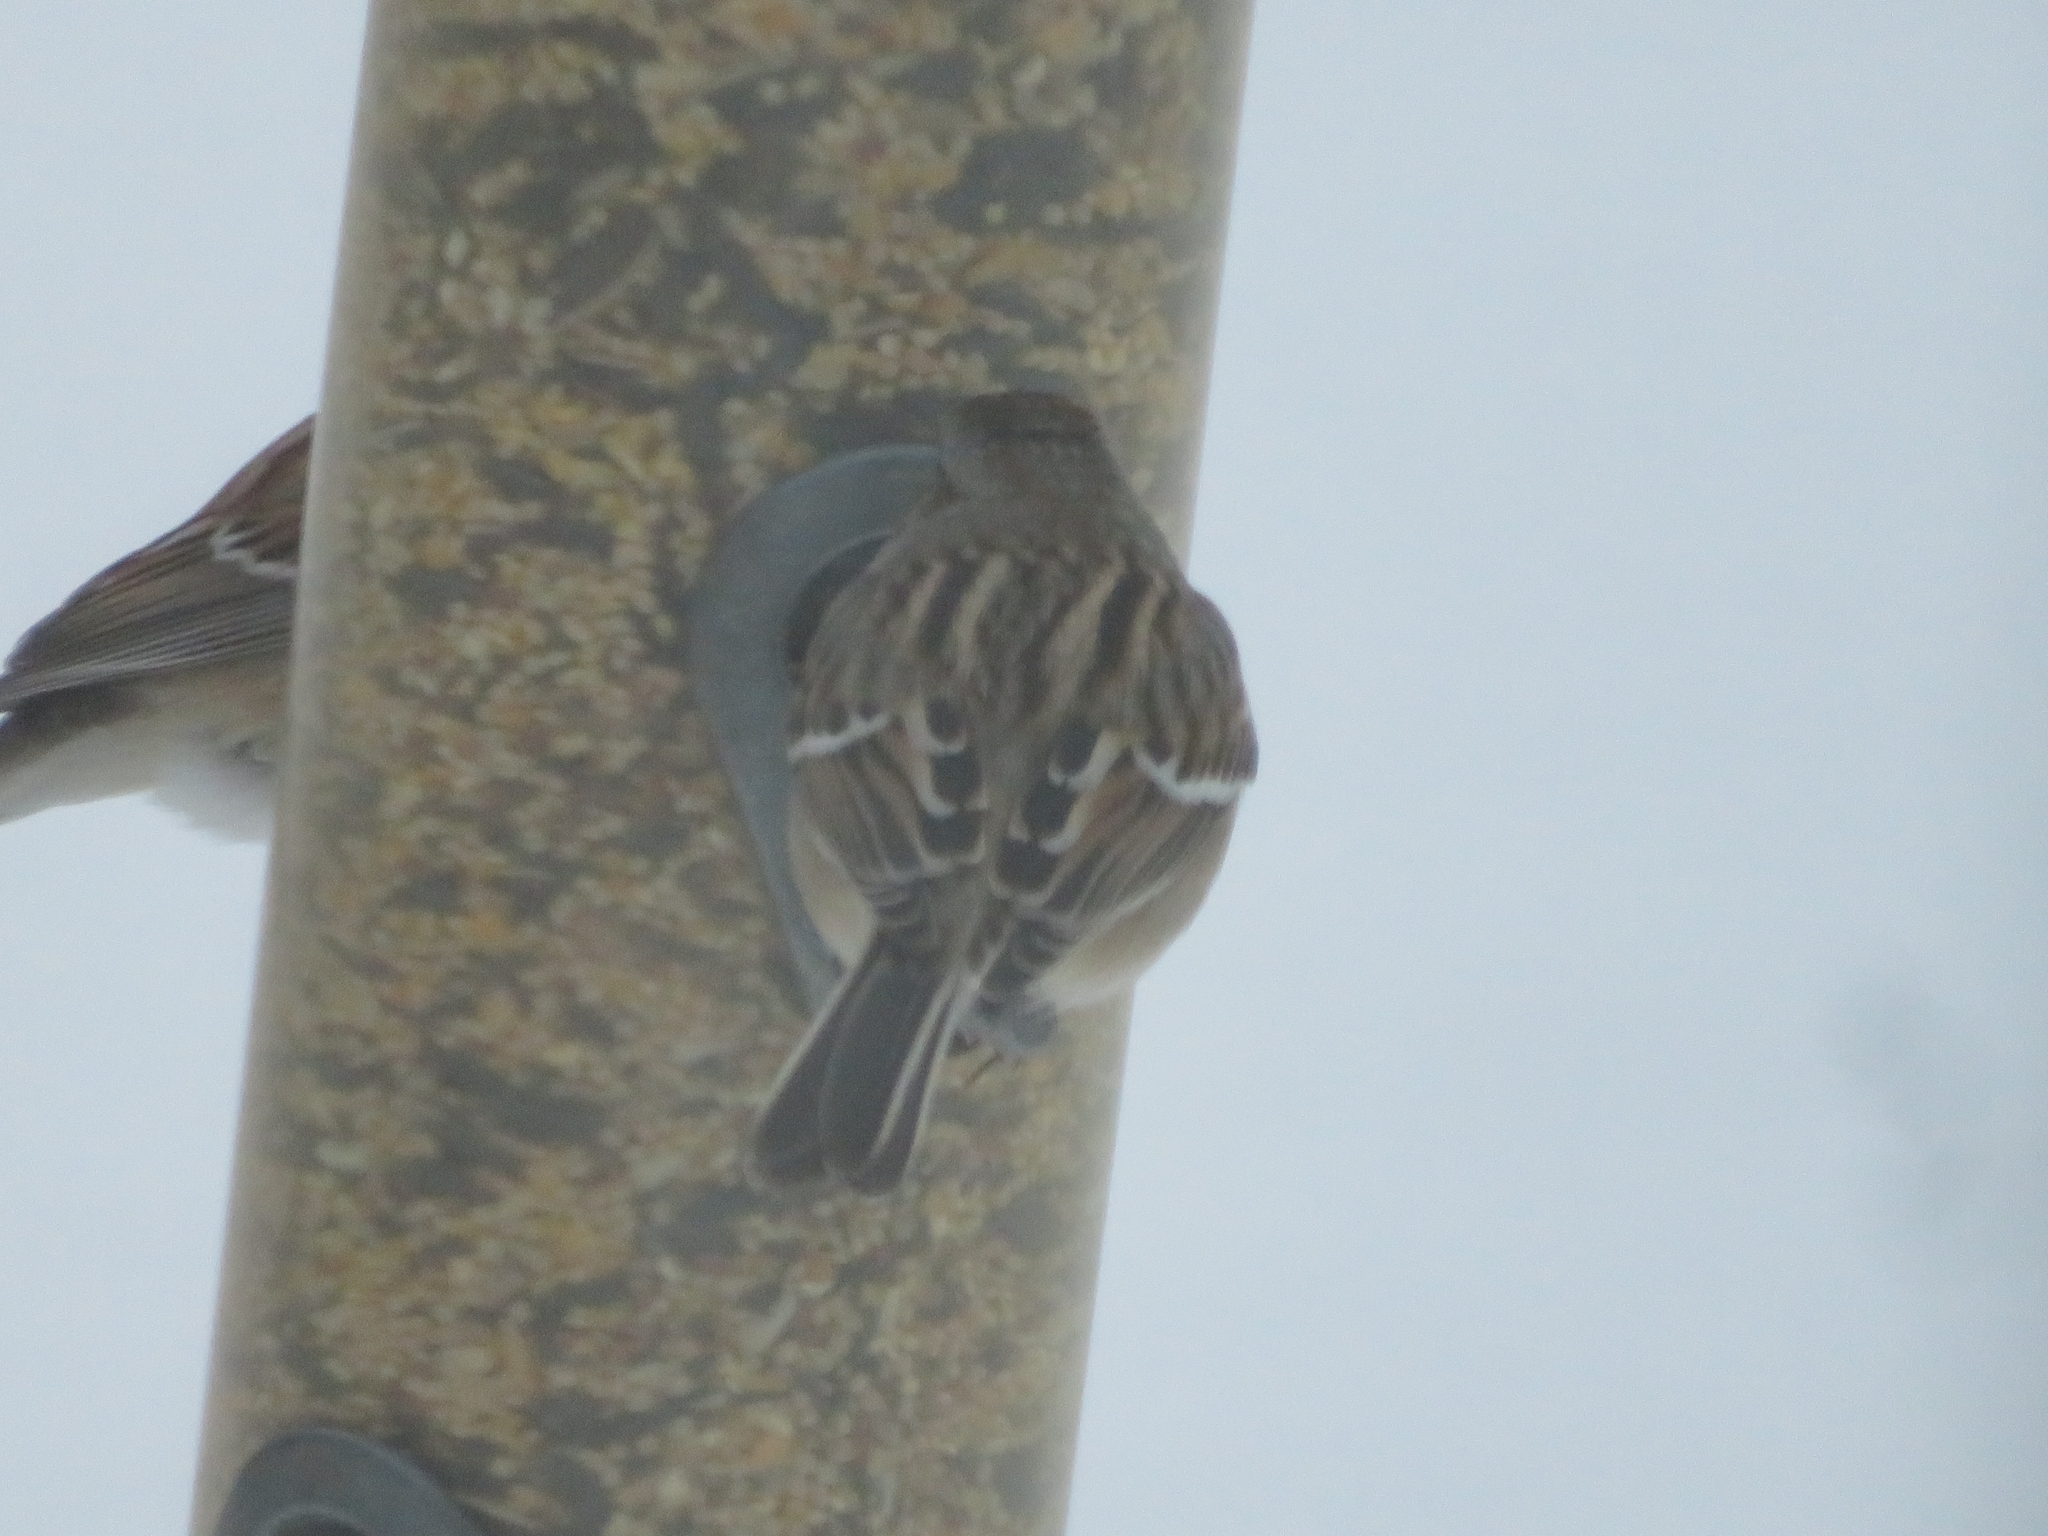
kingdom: Animalia
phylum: Chordata
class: Aves
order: Passeriformes
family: Passerellidae
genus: Spizelloides
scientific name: Spizelloides arborea
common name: American tree sparrow
